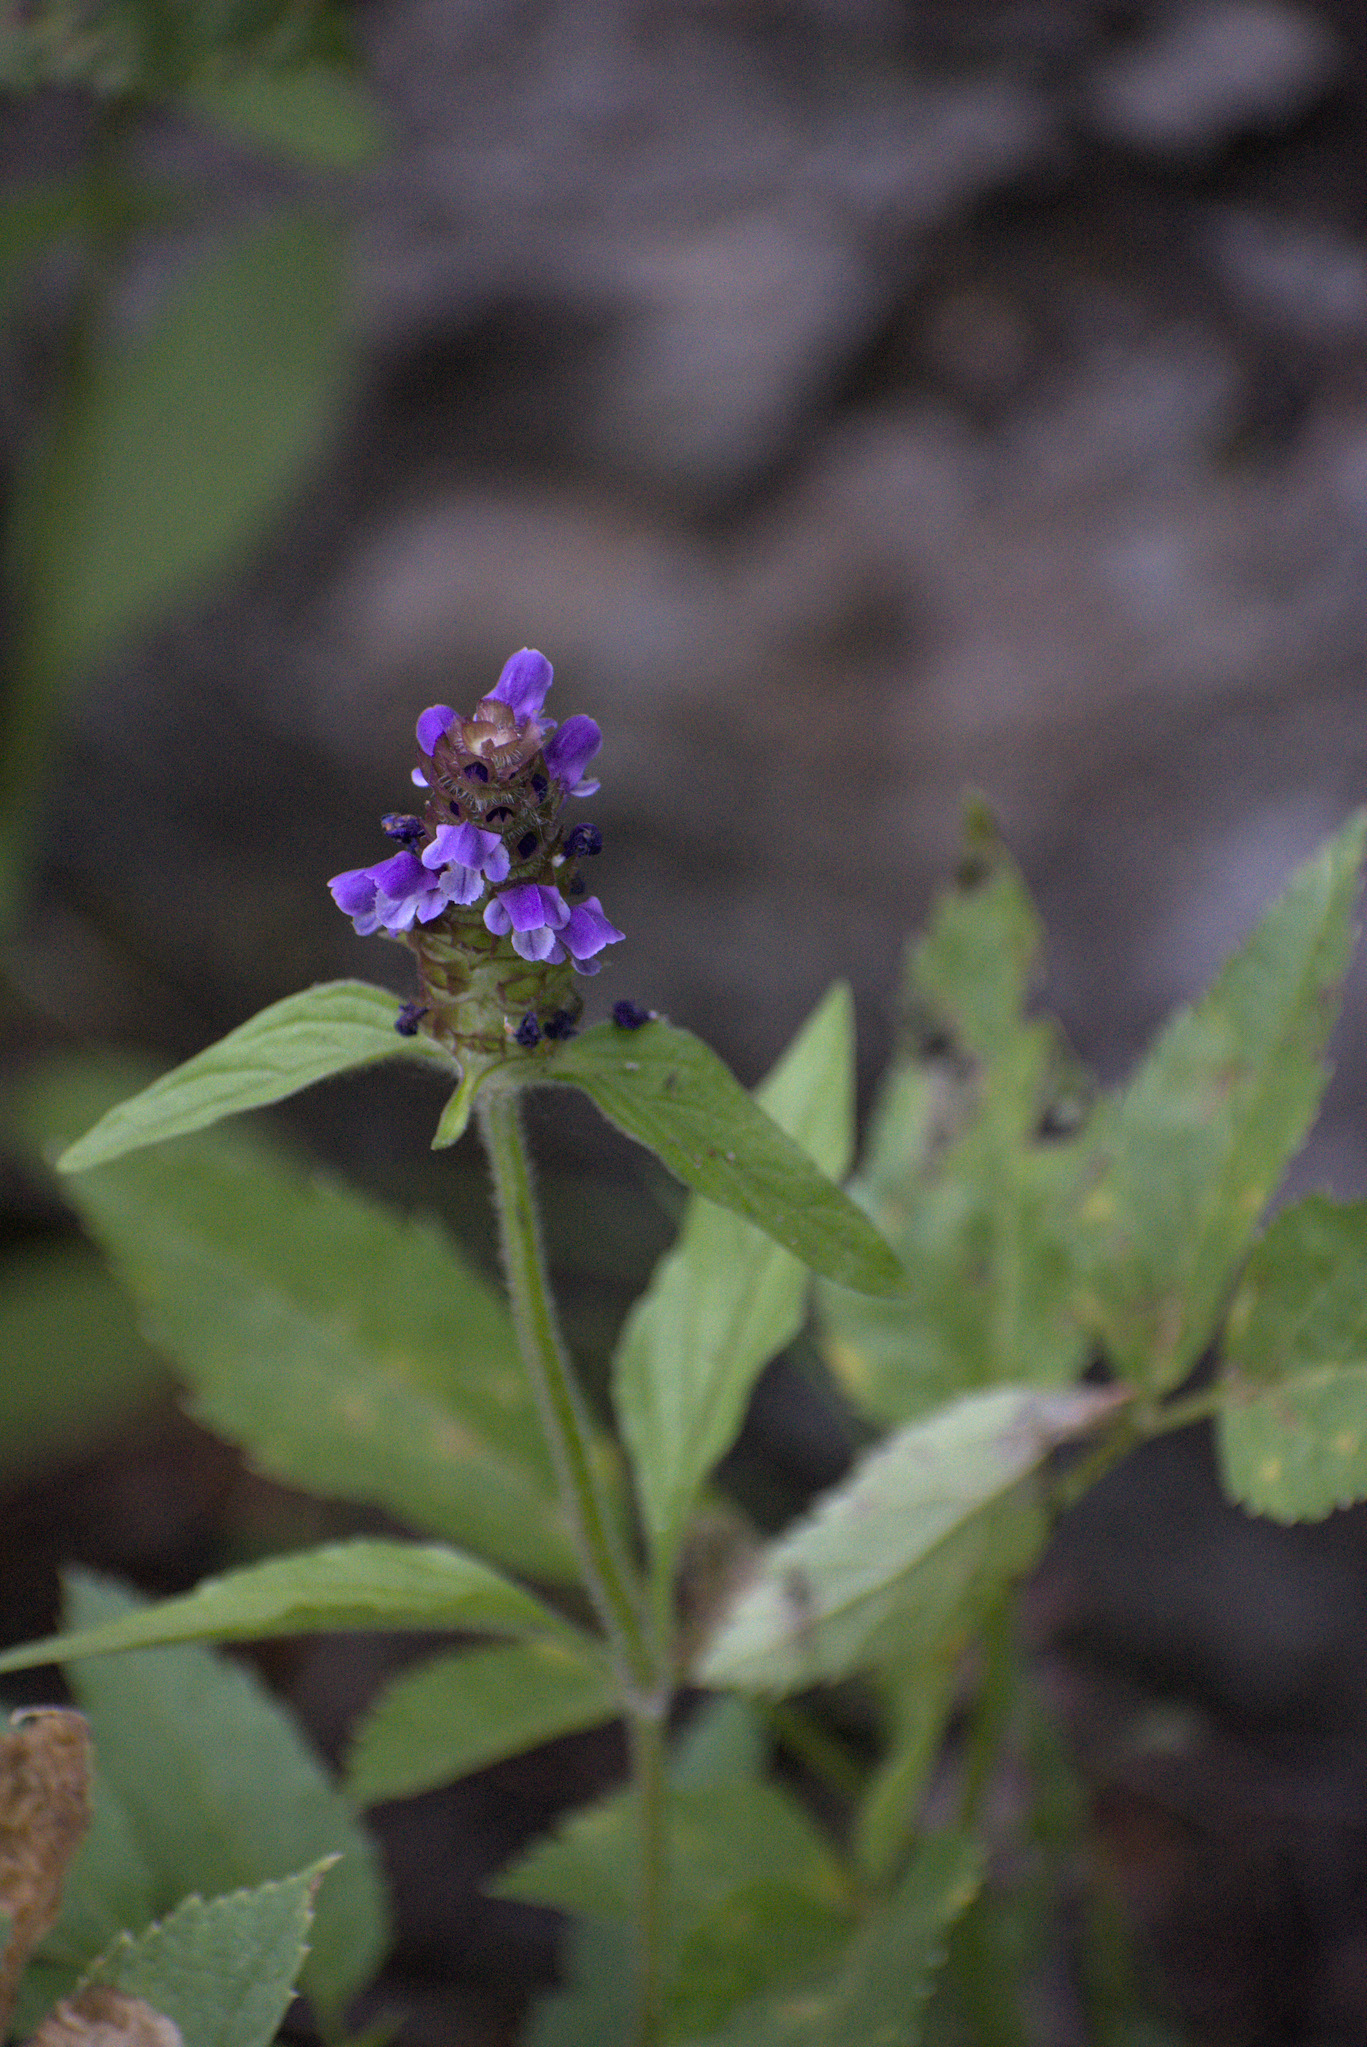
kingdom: Plantae
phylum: Tracheophyta
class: Magnoliopsida
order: Lamiales
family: Lamiaceae
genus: Prunella
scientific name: Prunella vulgaris
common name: Heal-all
